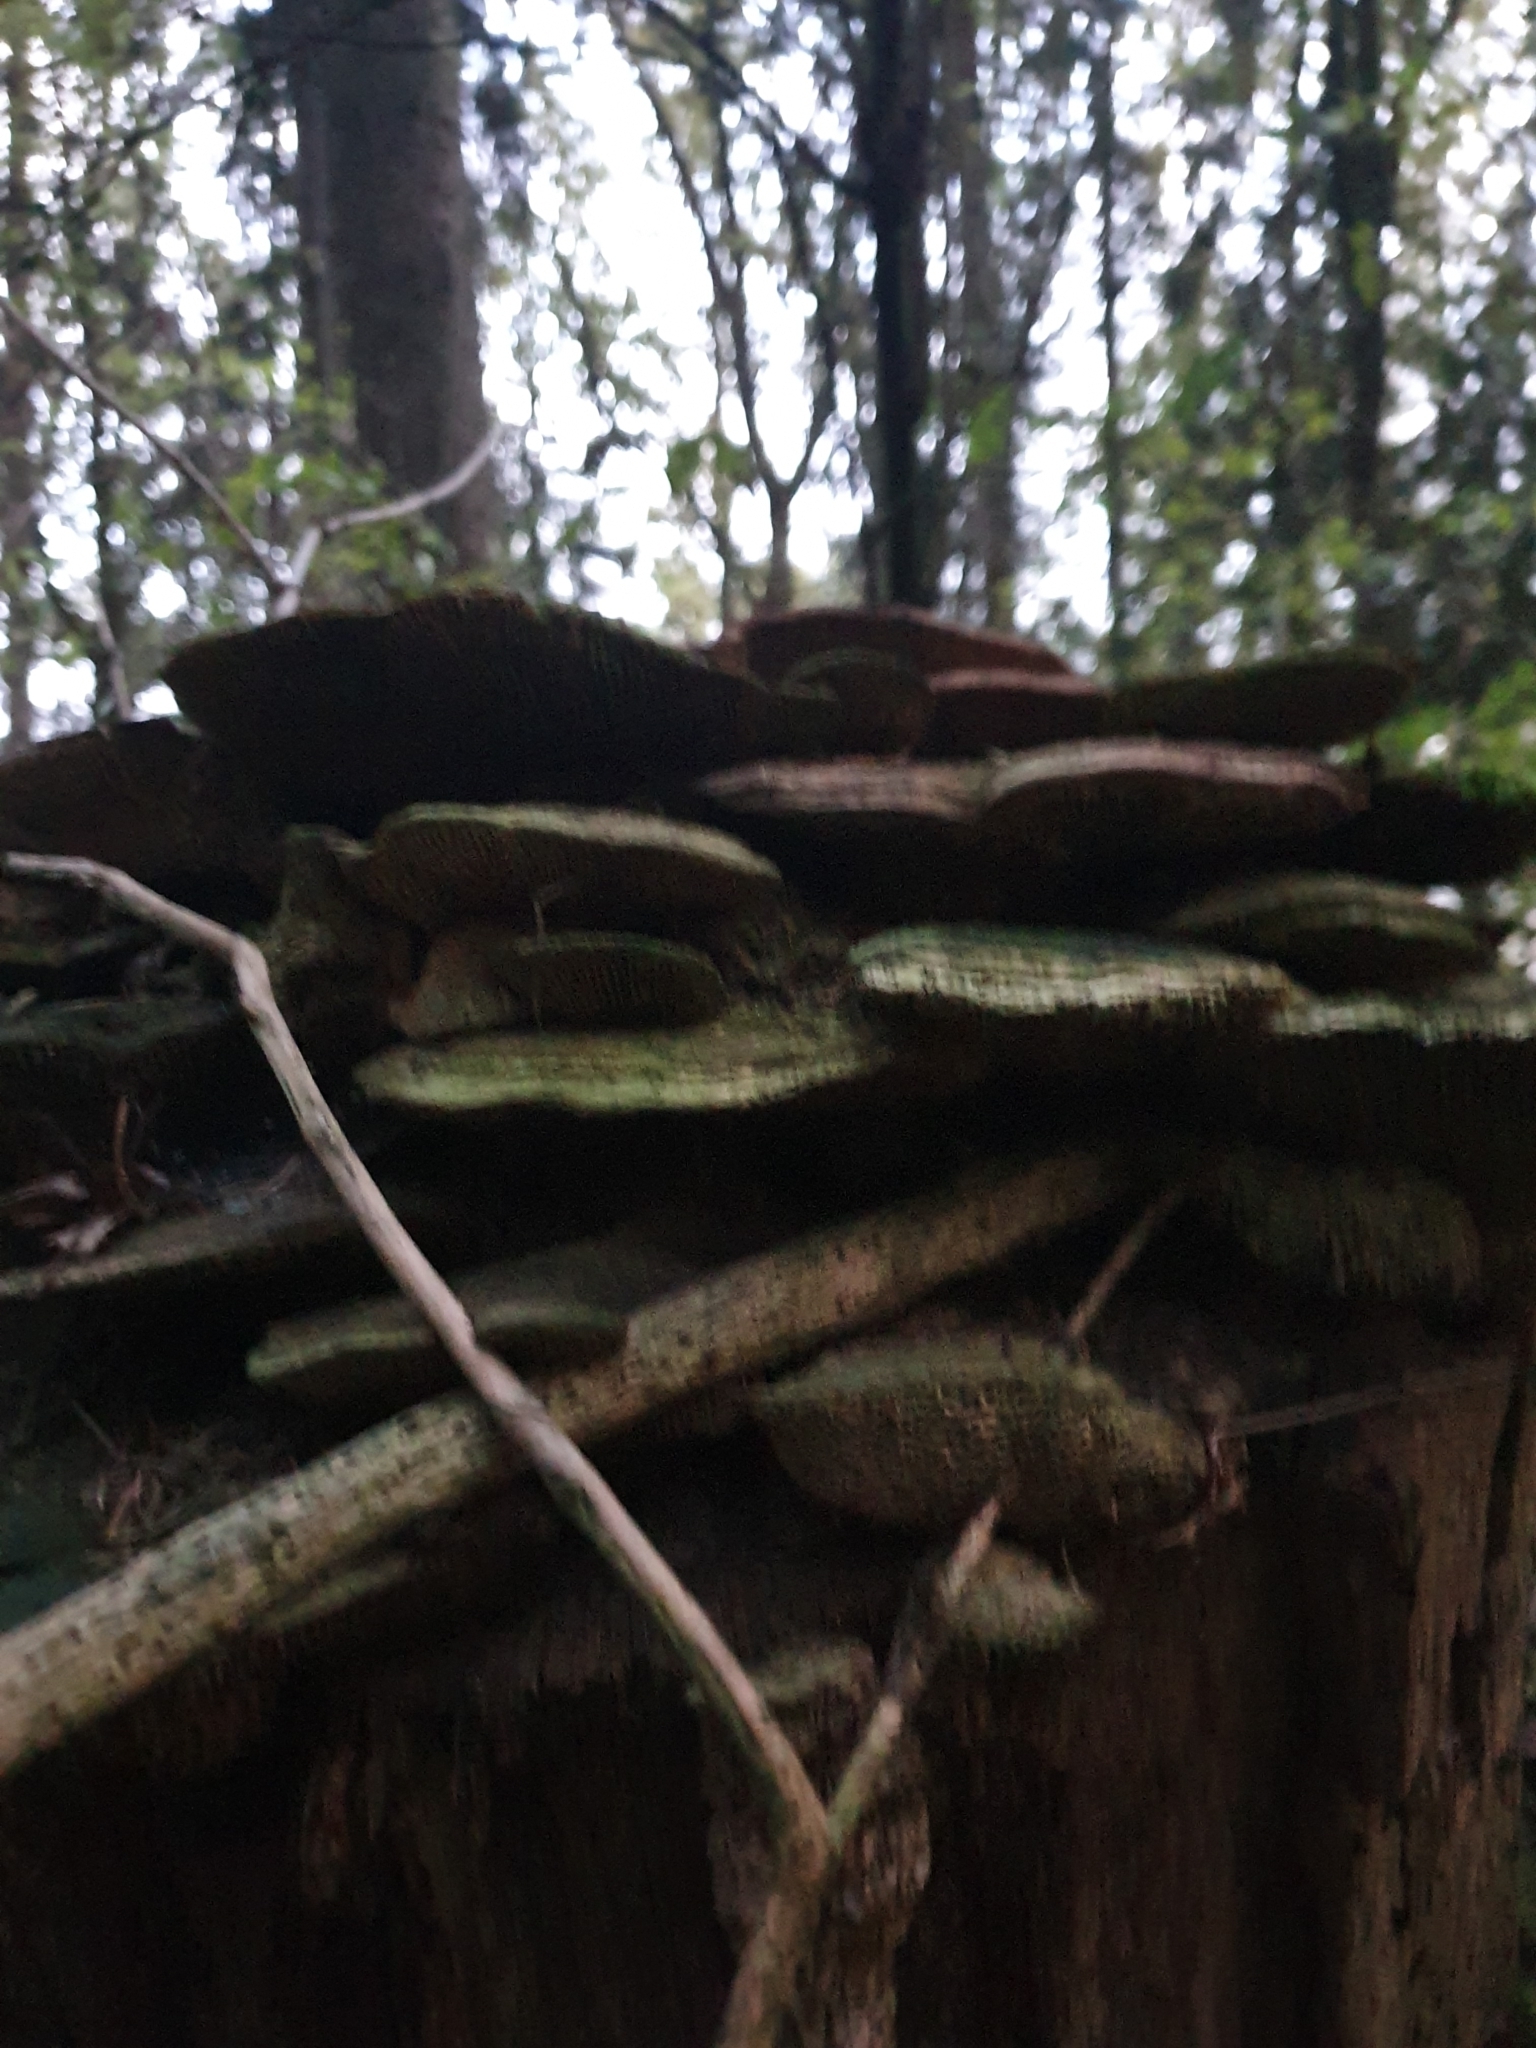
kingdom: Fungi
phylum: Basidiomycota
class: Agaricomycetes
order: Polyporales
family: Polyporaceae
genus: Daedaleopsis
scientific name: Daedaleopsis confragosa
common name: Blushing bracket
